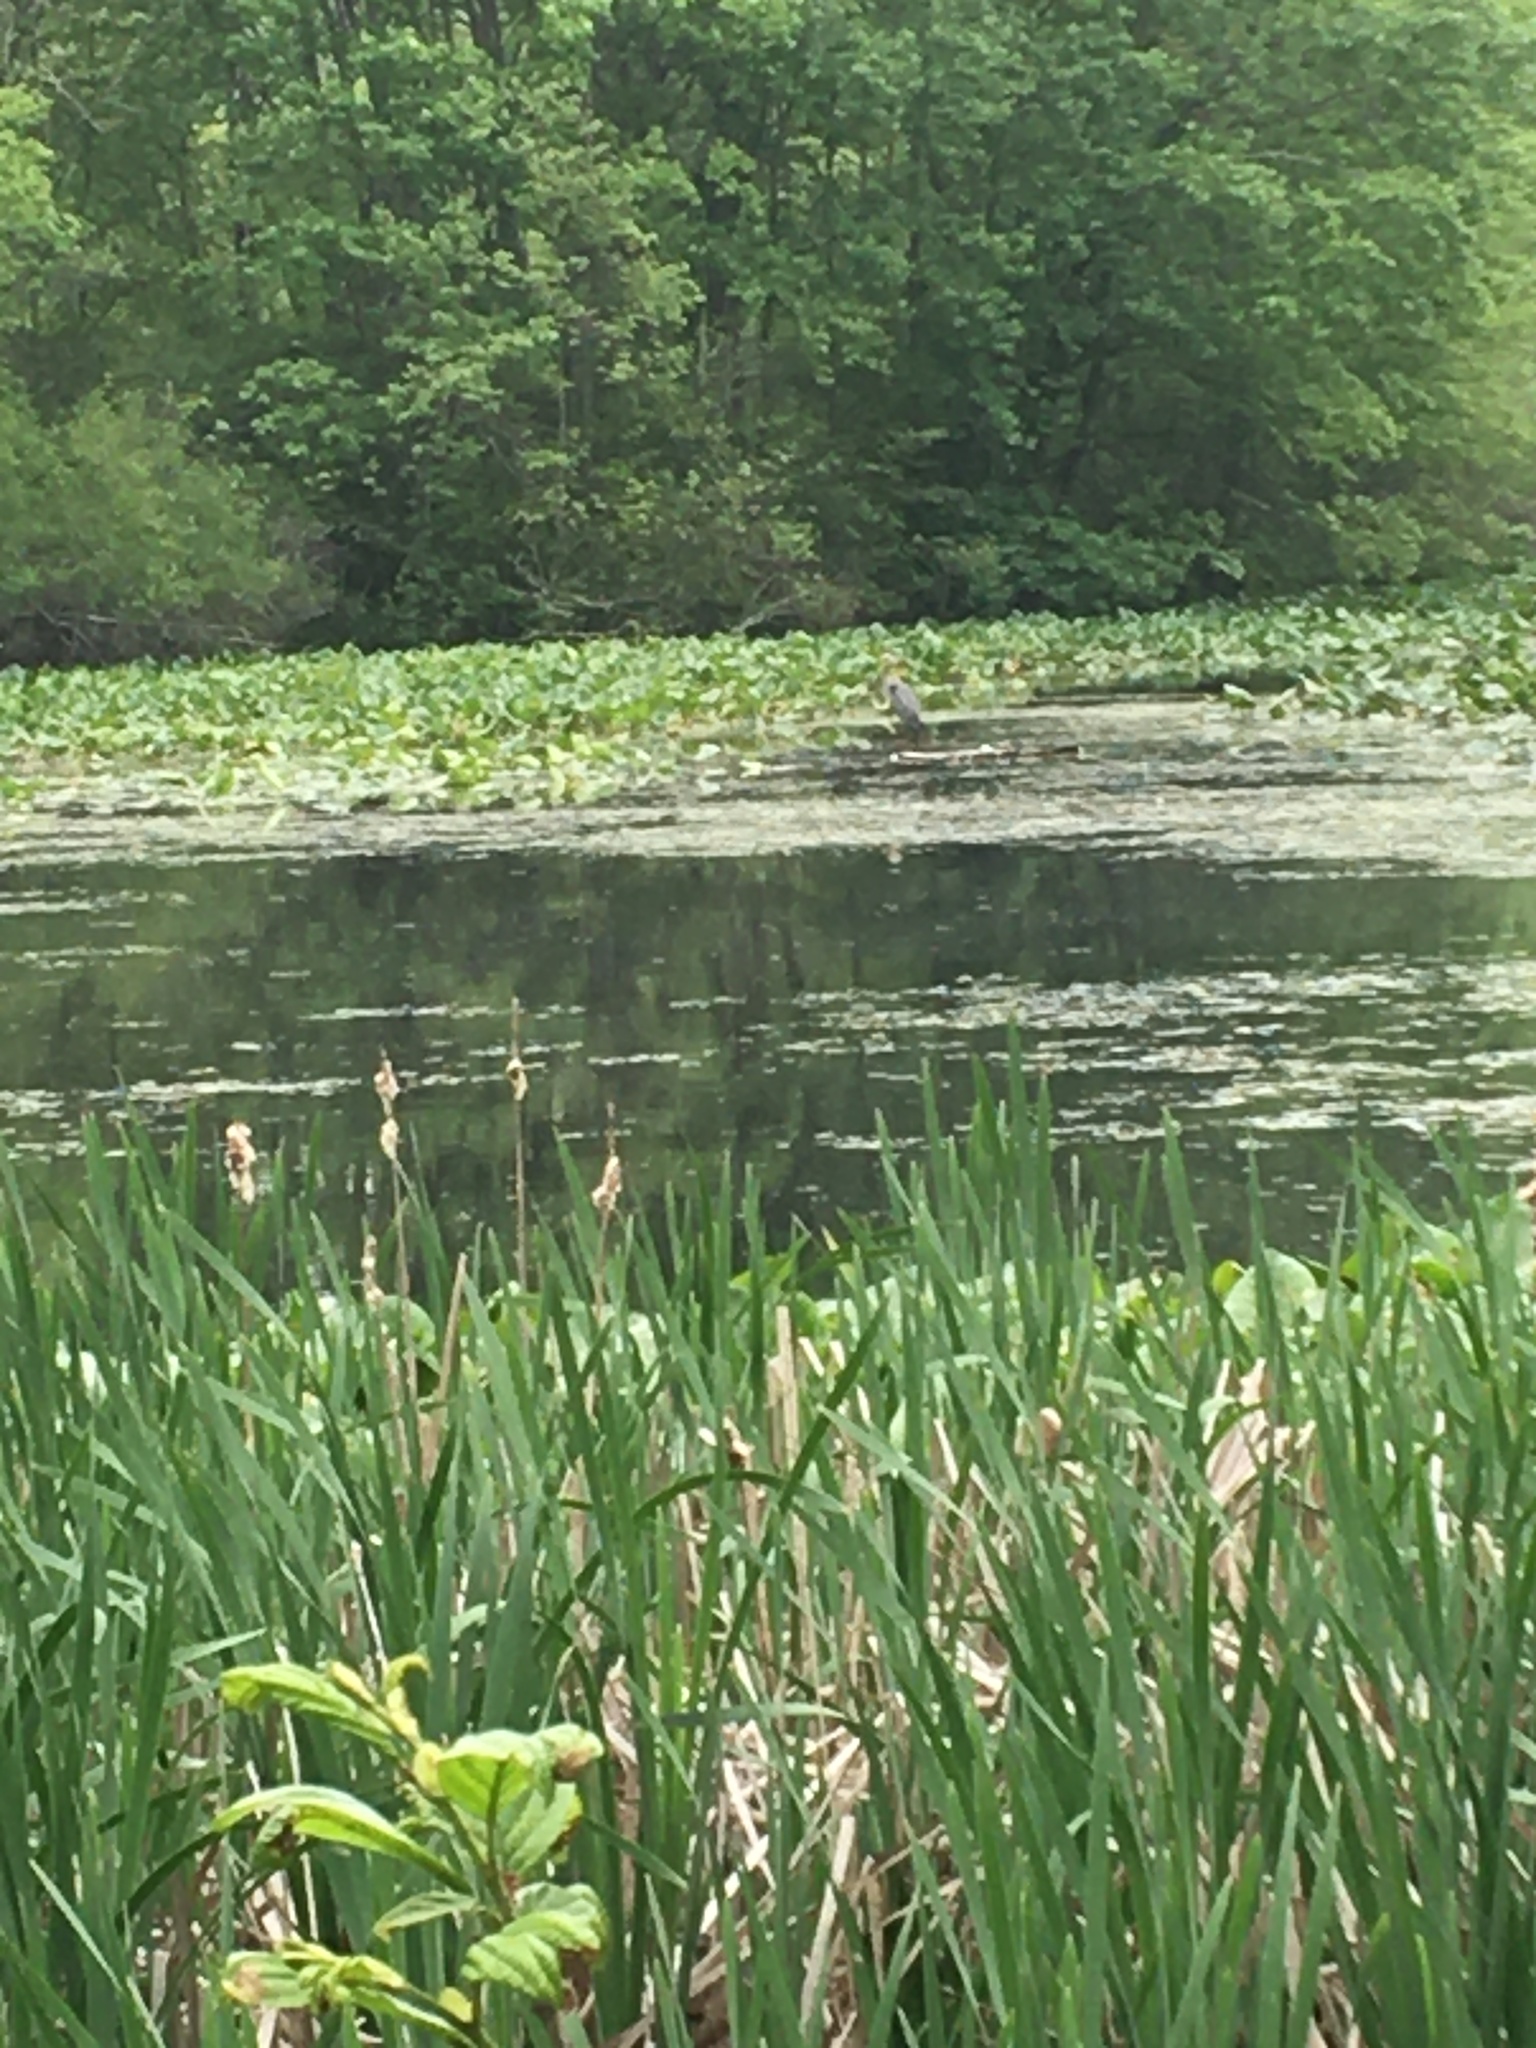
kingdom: Animalia
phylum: Chordata
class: Aves
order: Pelecaniformes
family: Ardeidae
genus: Ardea
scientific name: Ardea herodias
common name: Great blue heron
